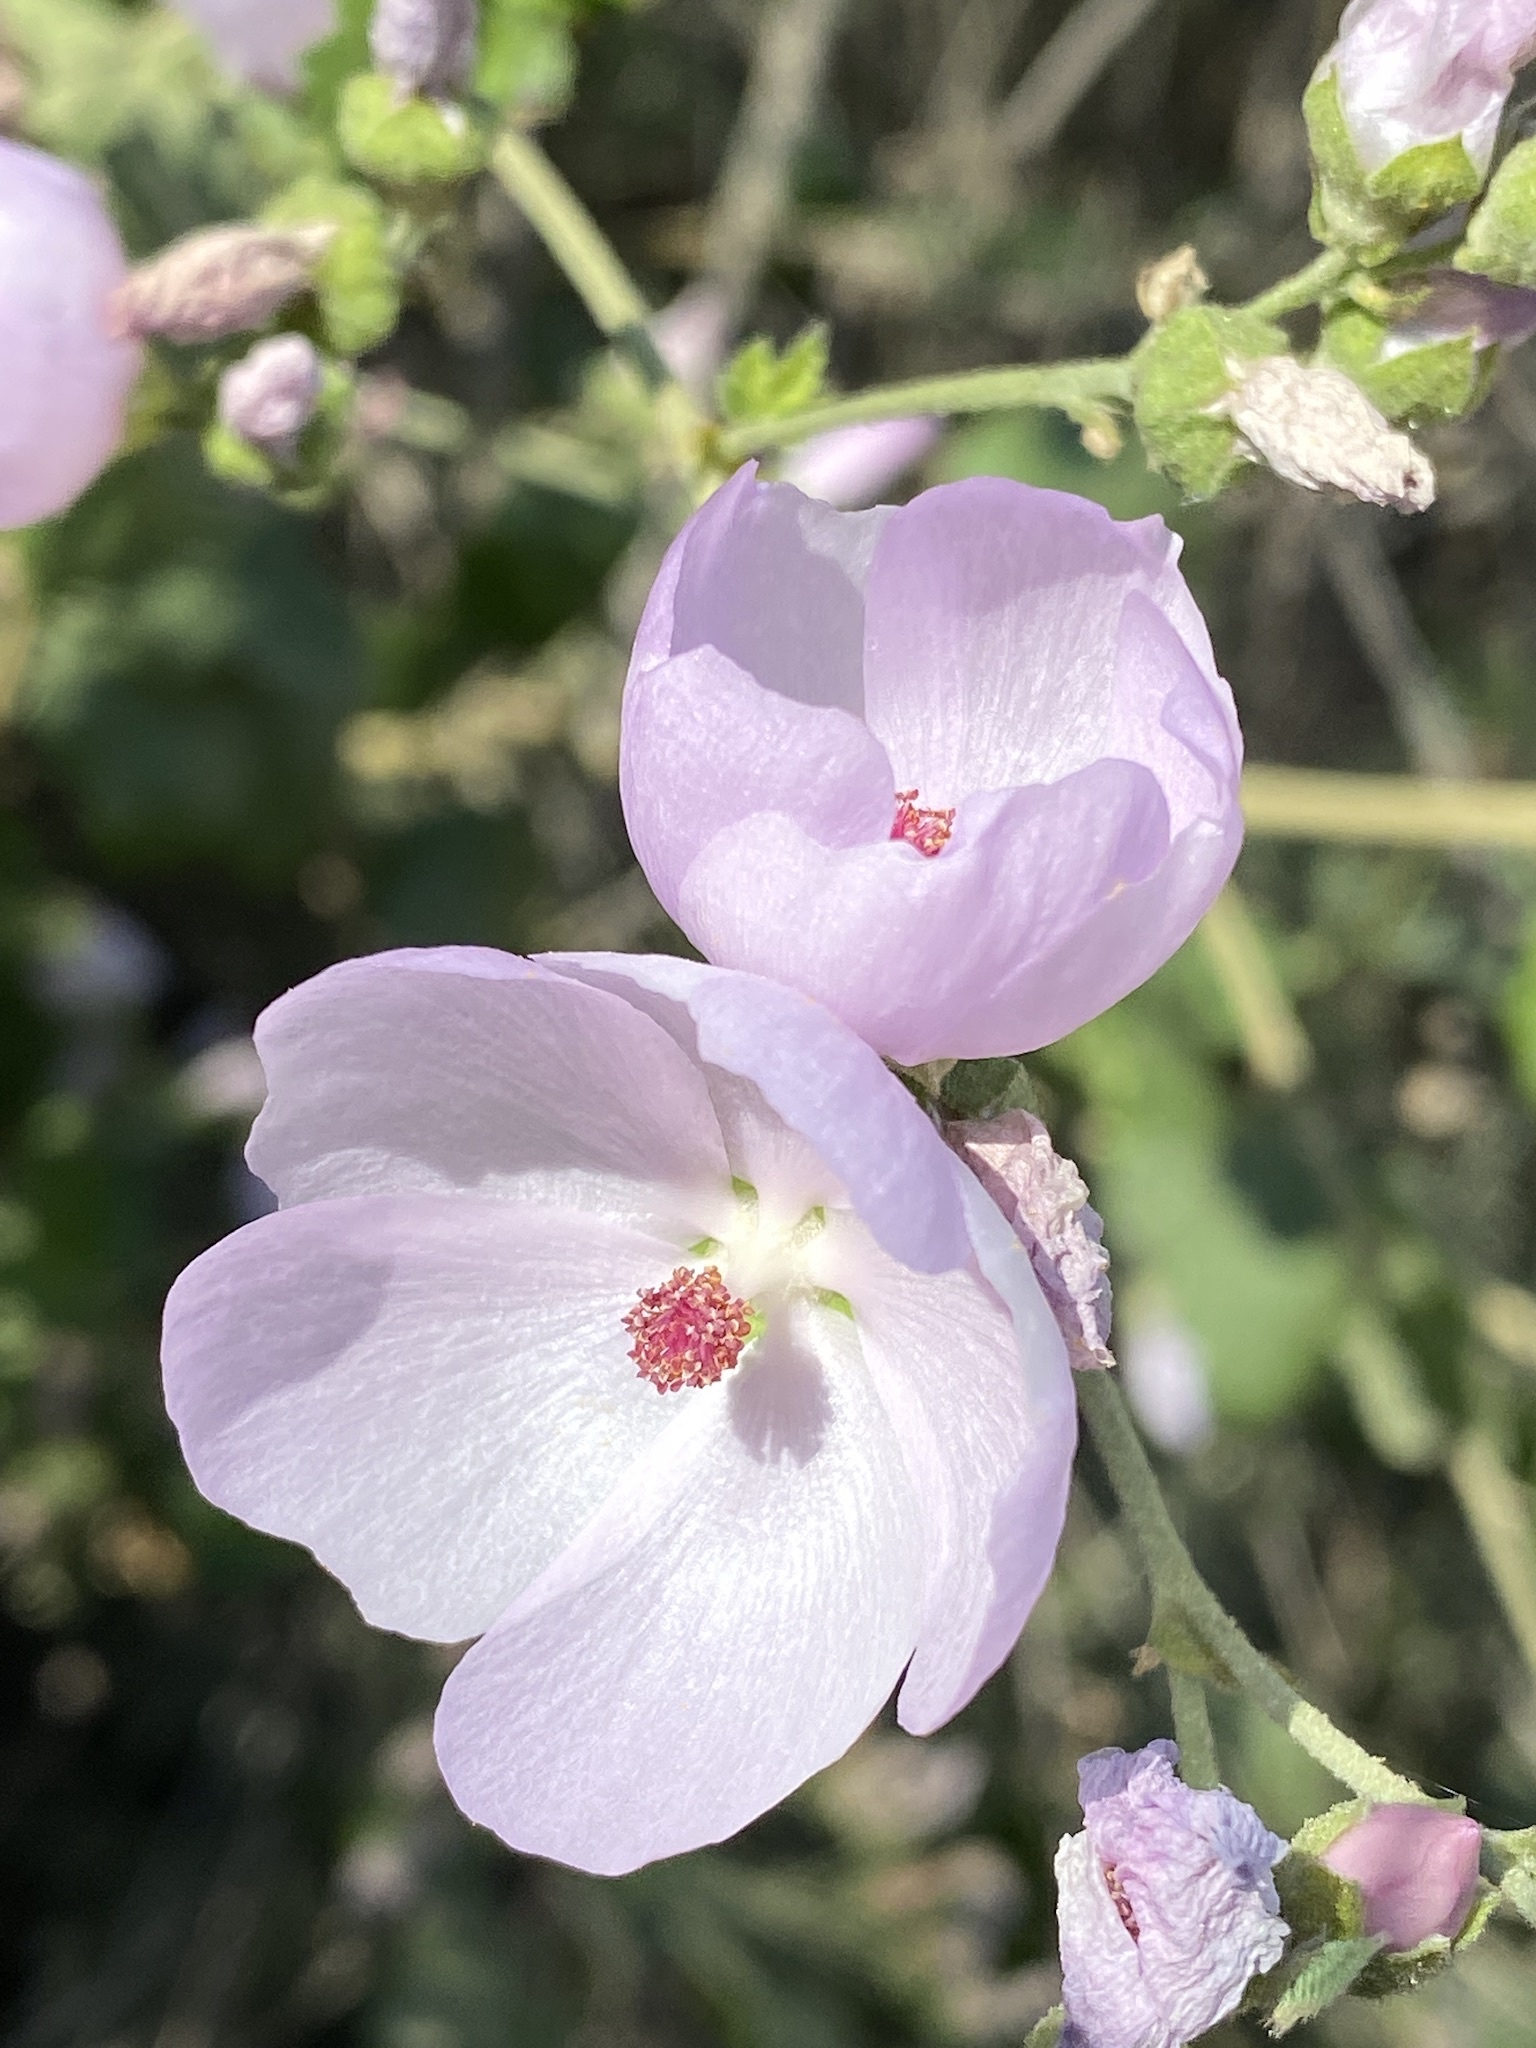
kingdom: Plantae
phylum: Tracheophyta
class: Magnoliopsida
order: Malvales
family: Malvaceae
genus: Malacothamnus
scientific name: Malacothamnus fasciculatus
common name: Sant cruz island bush-mallow
